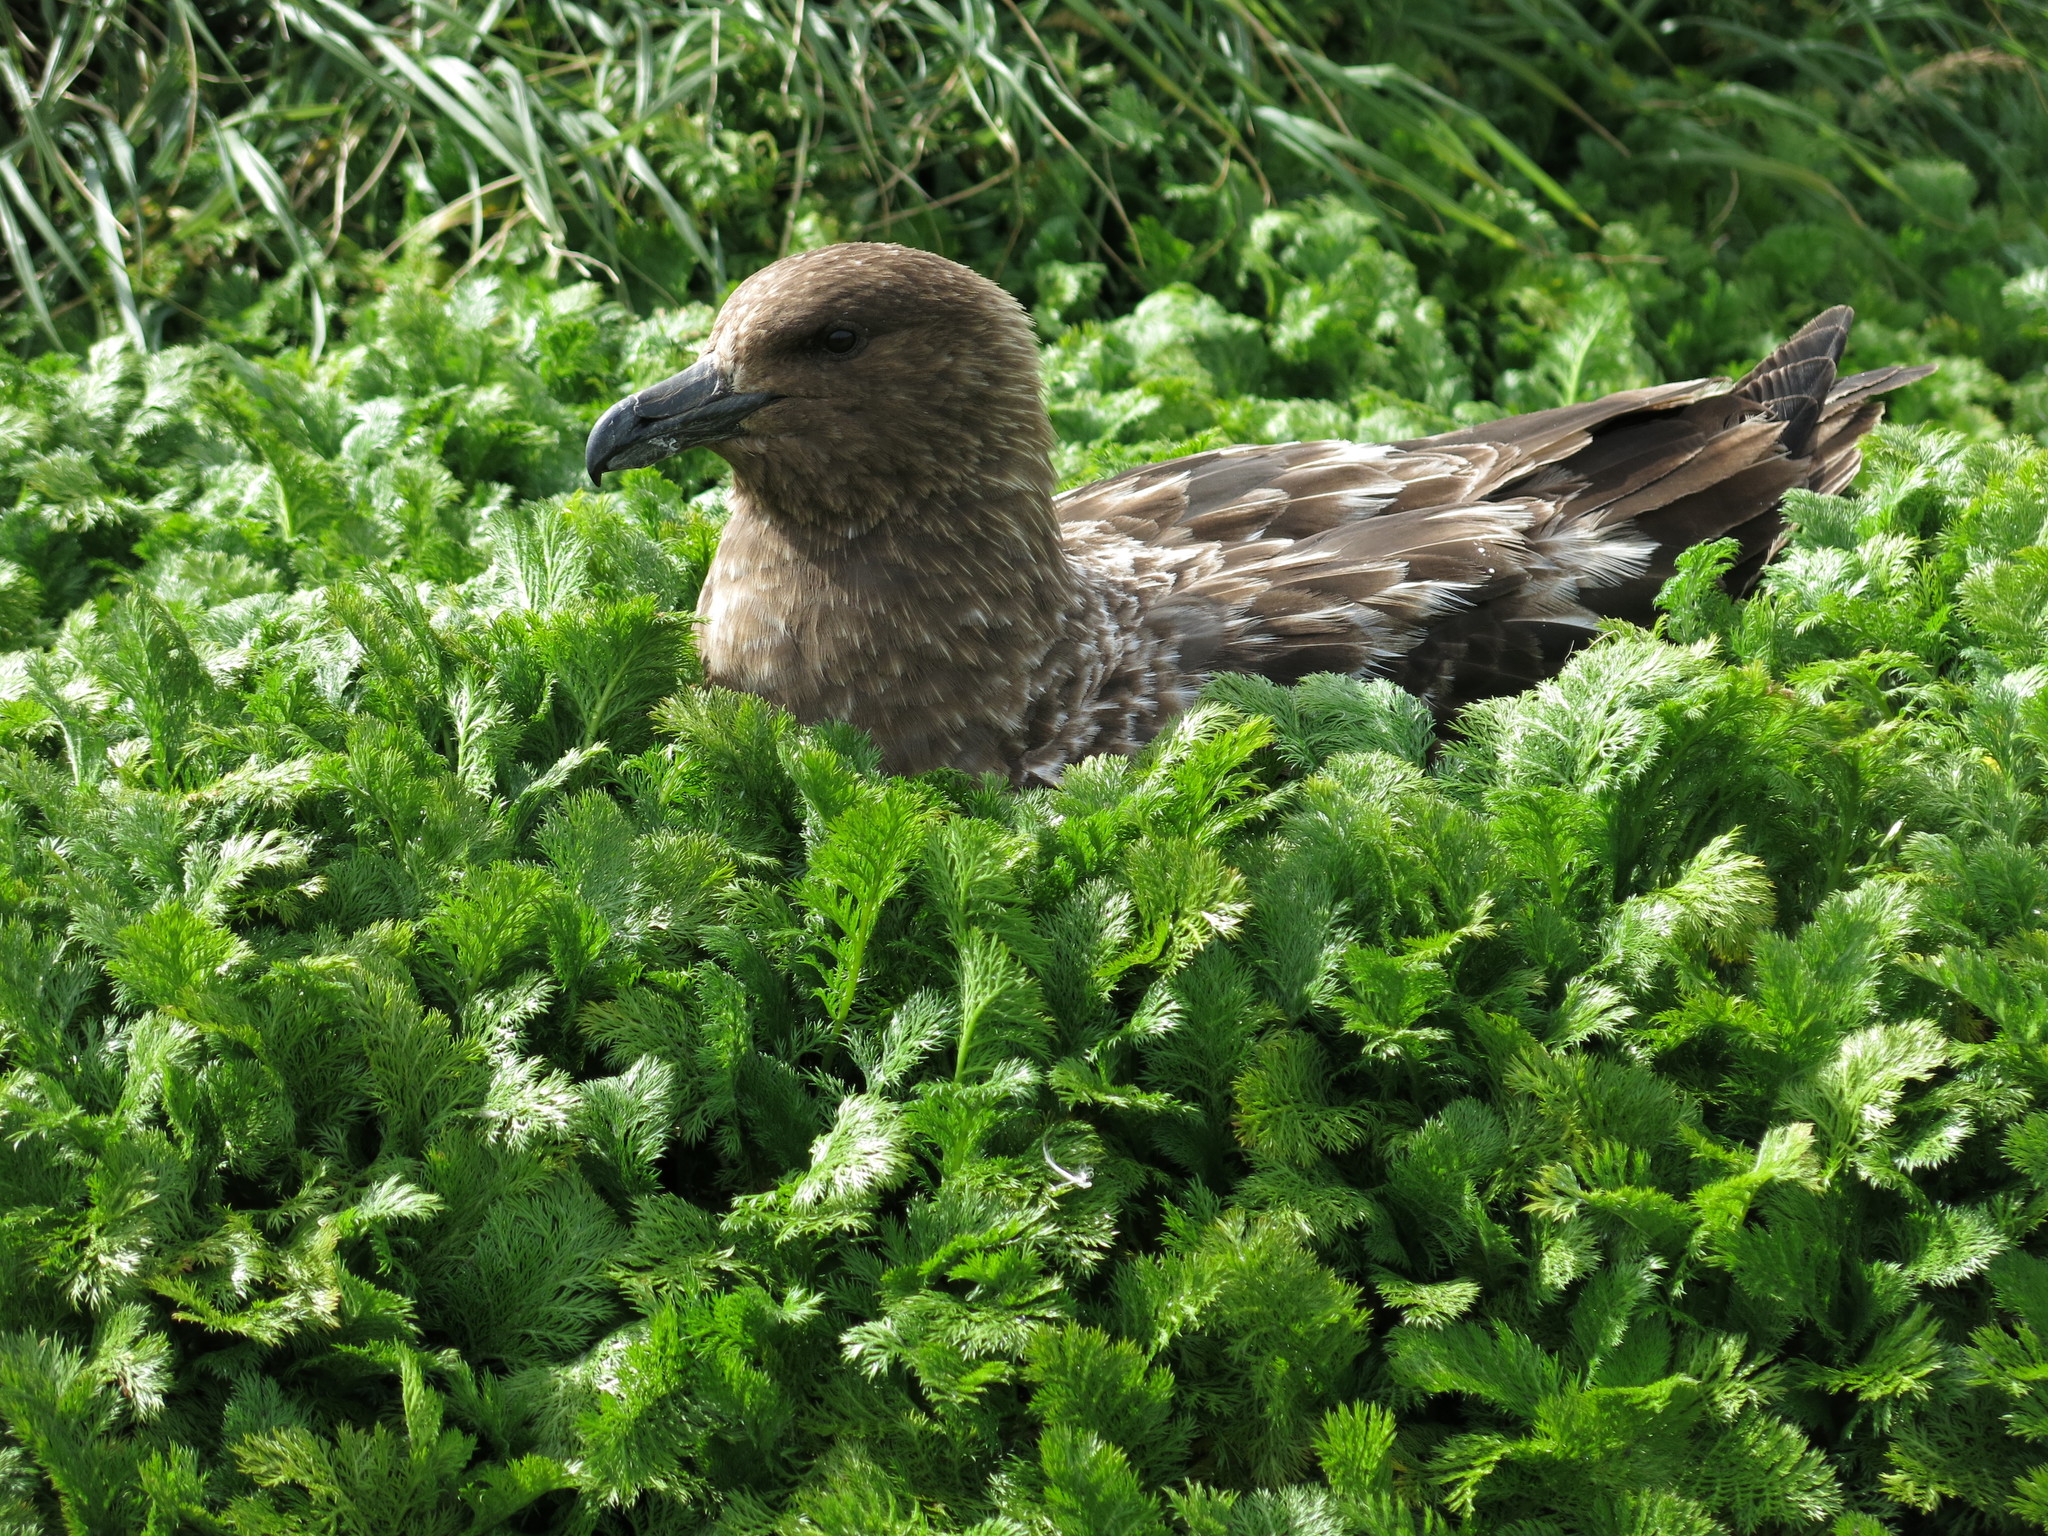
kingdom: Animalia
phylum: Chordata
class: Aves
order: Charadriiformes
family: Stercorariidae
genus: Stercorarius
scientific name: Stercorarius antarcticus
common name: Brown skua
